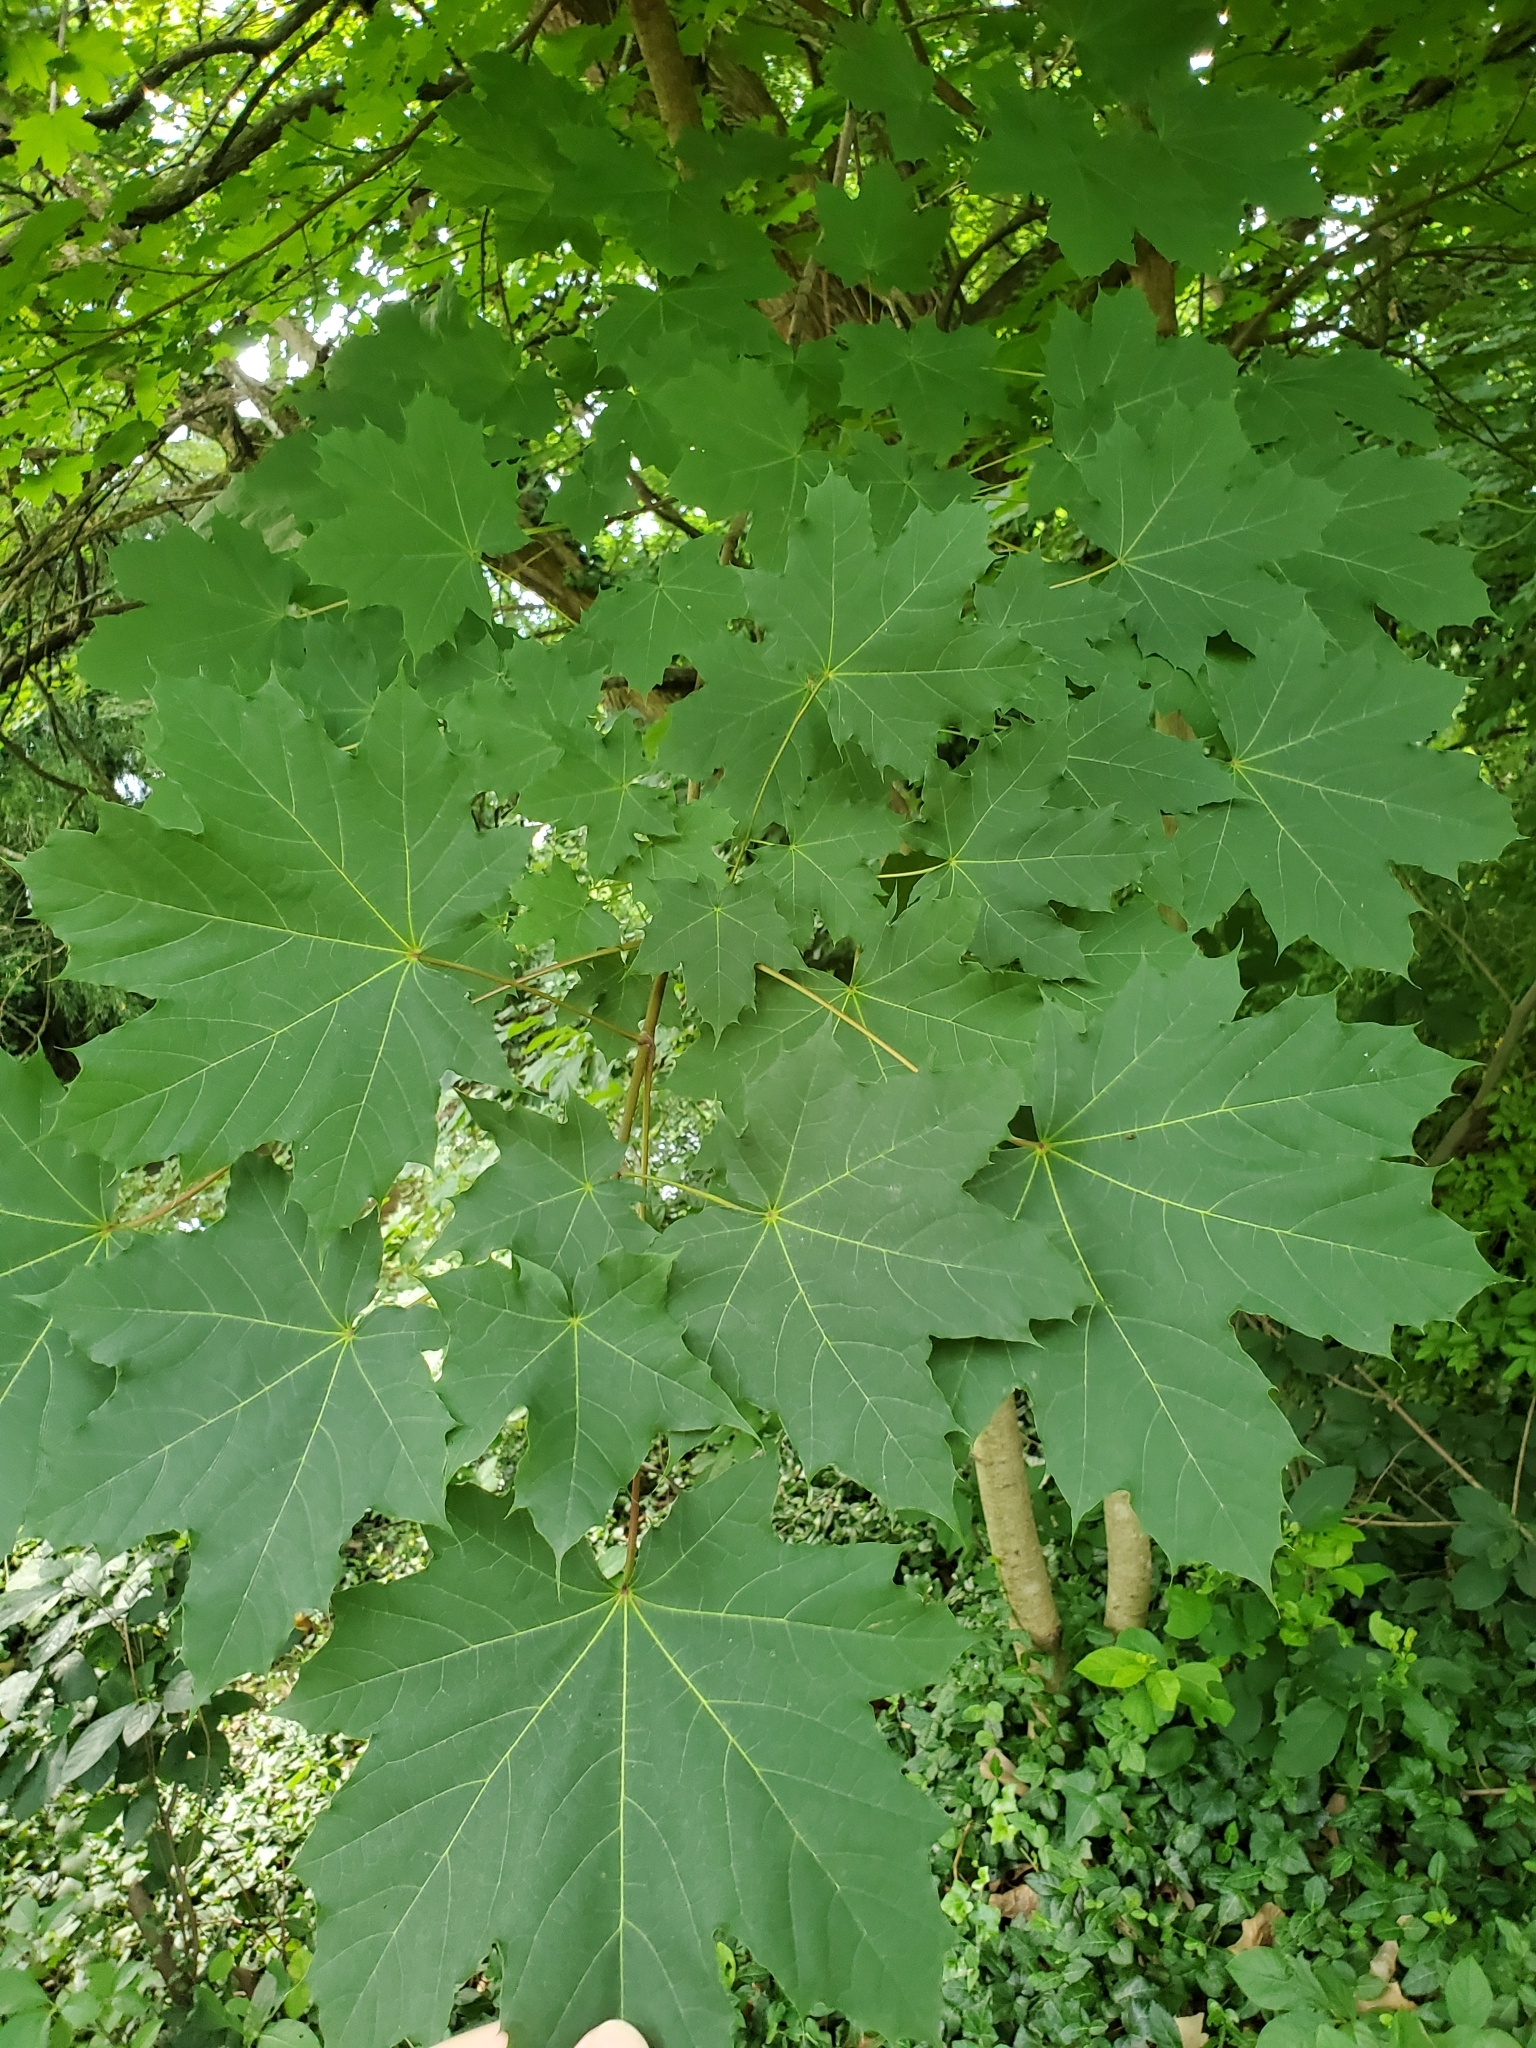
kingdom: Plantae
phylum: Tracheophyta
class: Magnoliopsida
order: Sapindales
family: Sapindaceae
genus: Acer
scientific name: Acer platanoides
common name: Norway maple
